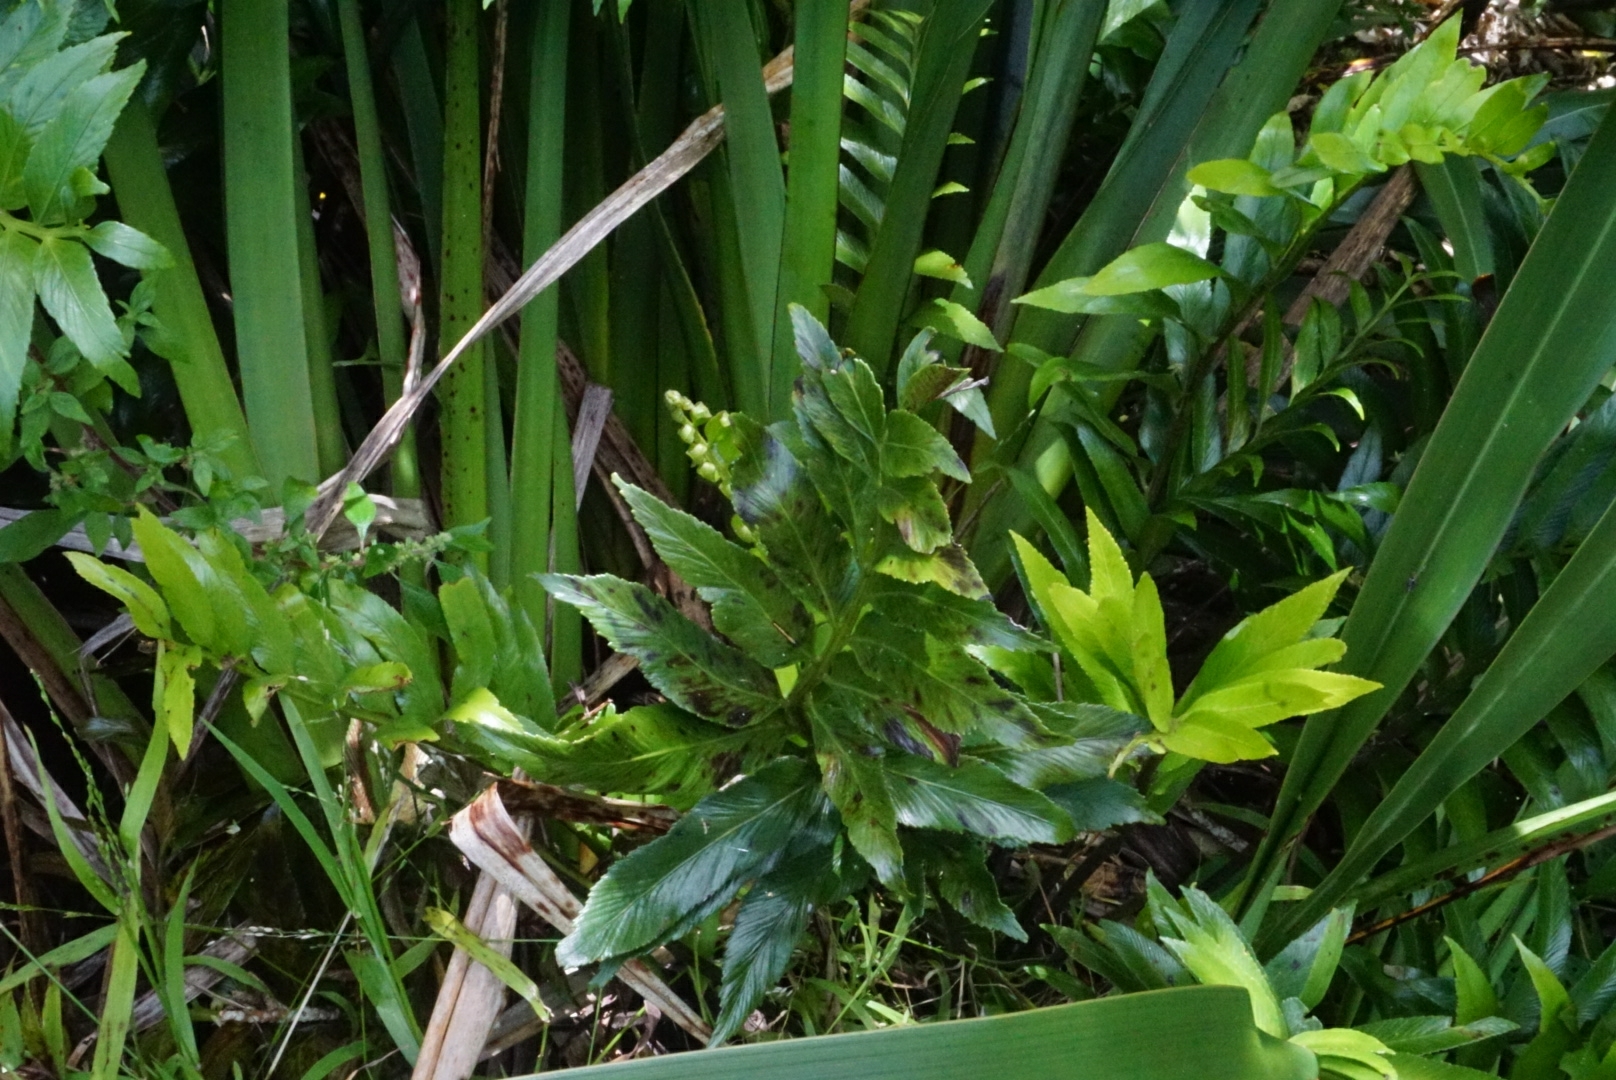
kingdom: Plantae
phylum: Tracheophyta
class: Polypodiopsida
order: Polypodiales
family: Aspleniaceae
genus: Asplenium
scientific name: Asplenium oblongifolium
